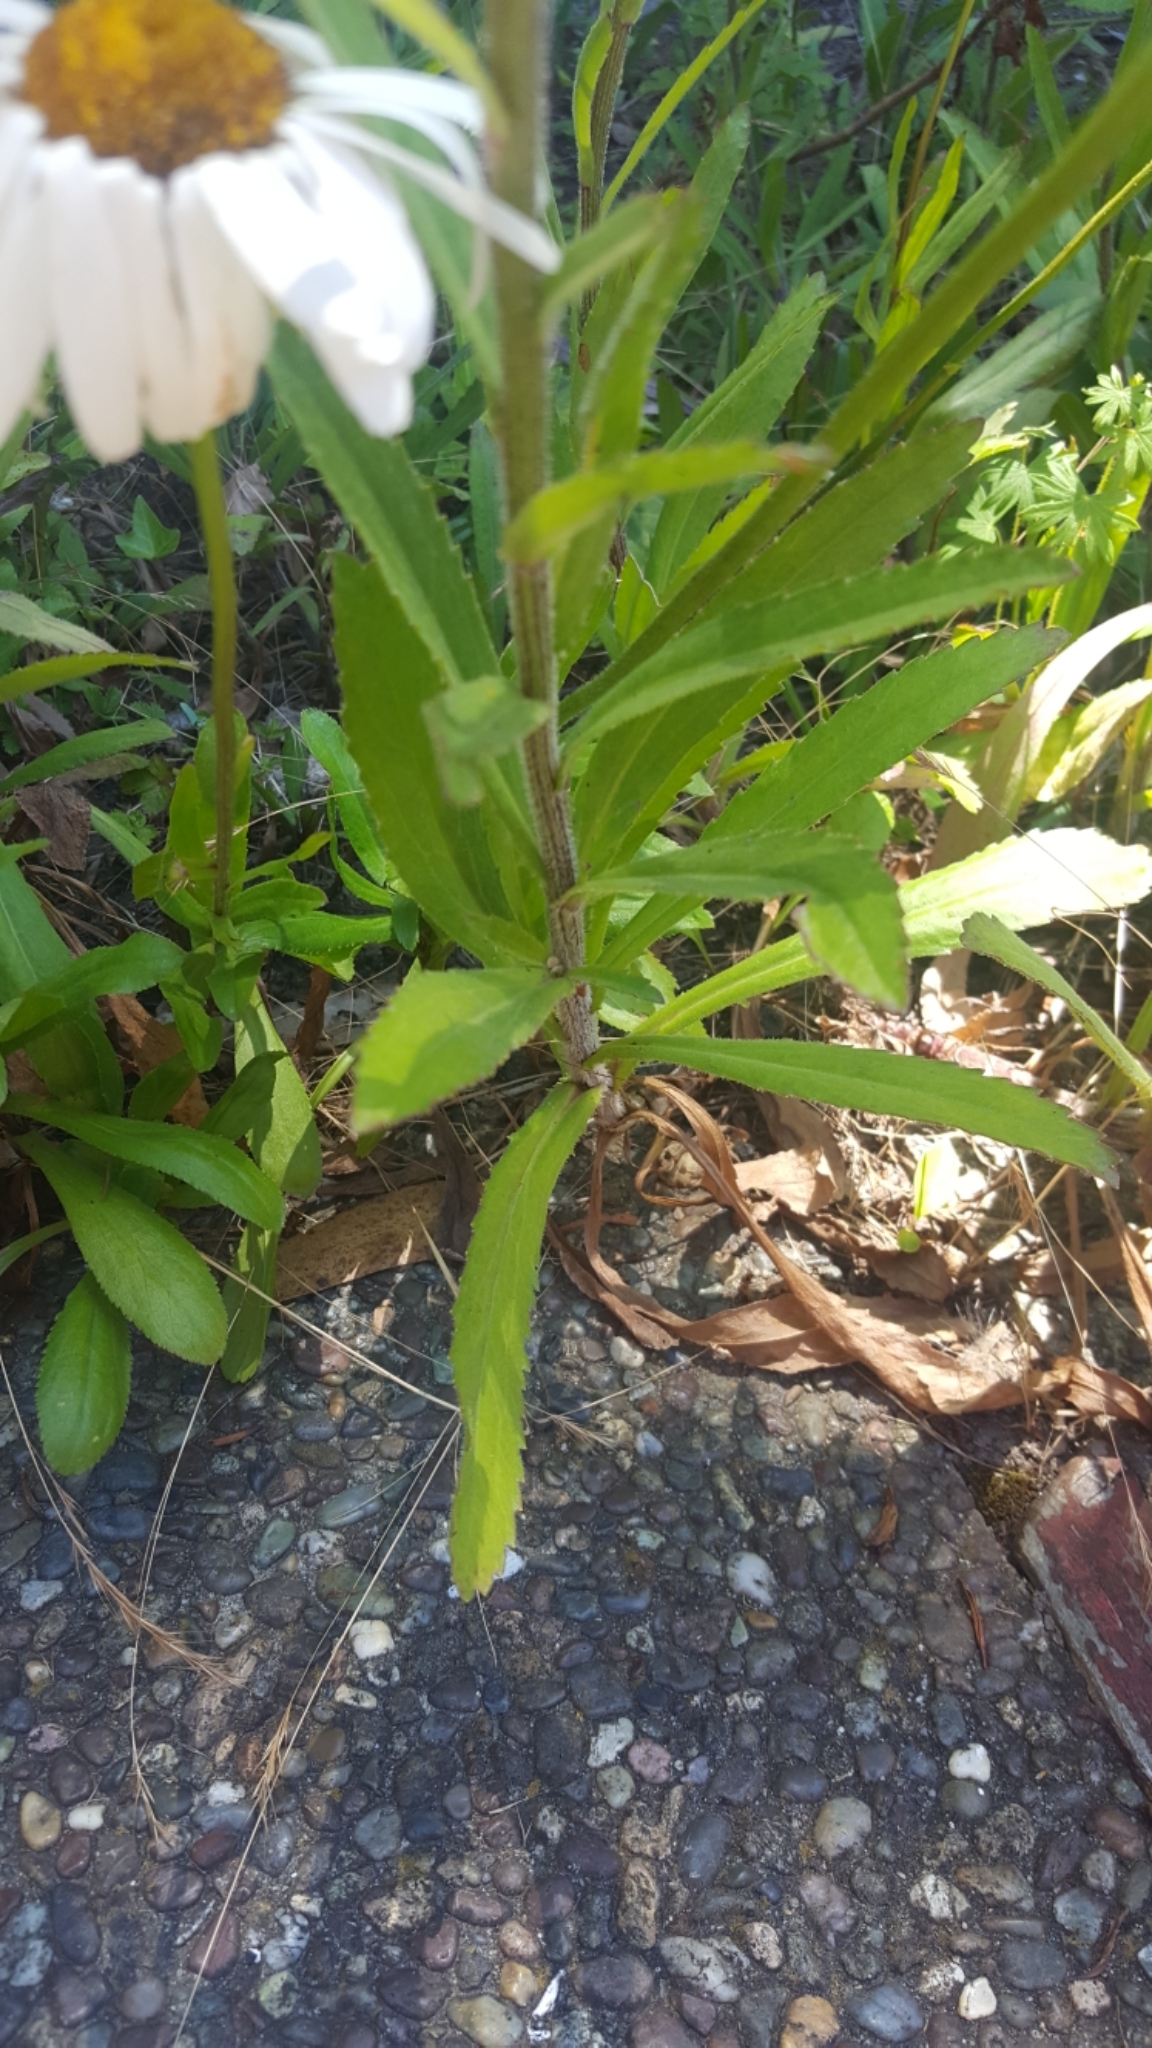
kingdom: Plantae
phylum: Tracheophyta
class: Magnoliopsida
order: Asterales
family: Asteraceae
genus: Leucanthemum
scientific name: Leucanthemum maximum
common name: Max chrysanthemum
